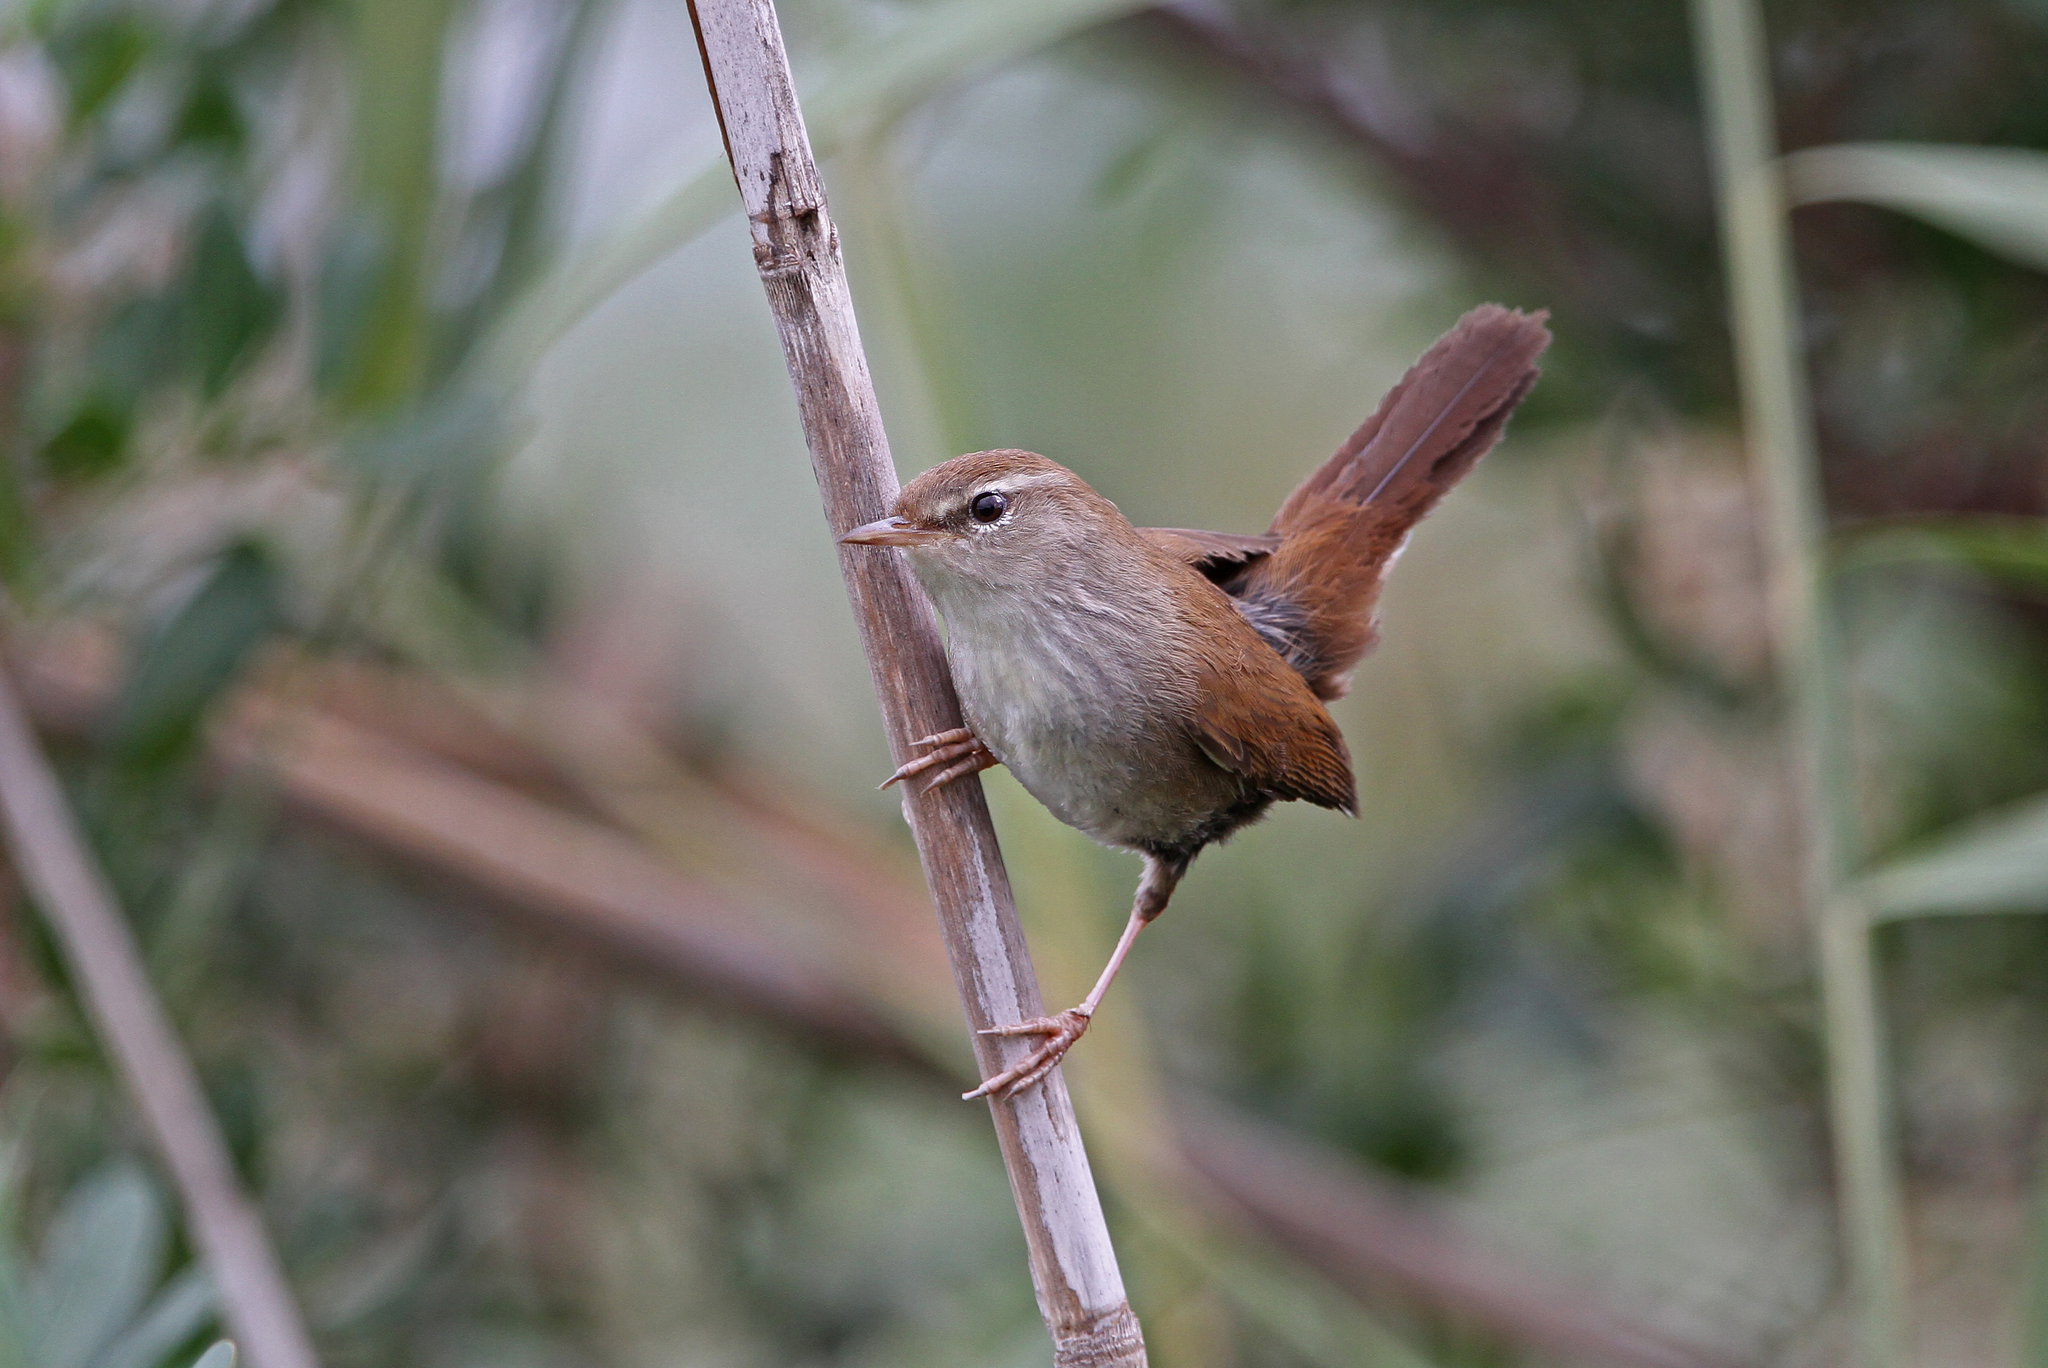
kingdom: Animalia
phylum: Chordata
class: Aves
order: Passeriformes
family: Cettiidae
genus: Cettia
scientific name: Cettia cetti
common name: Cetti's warbler
